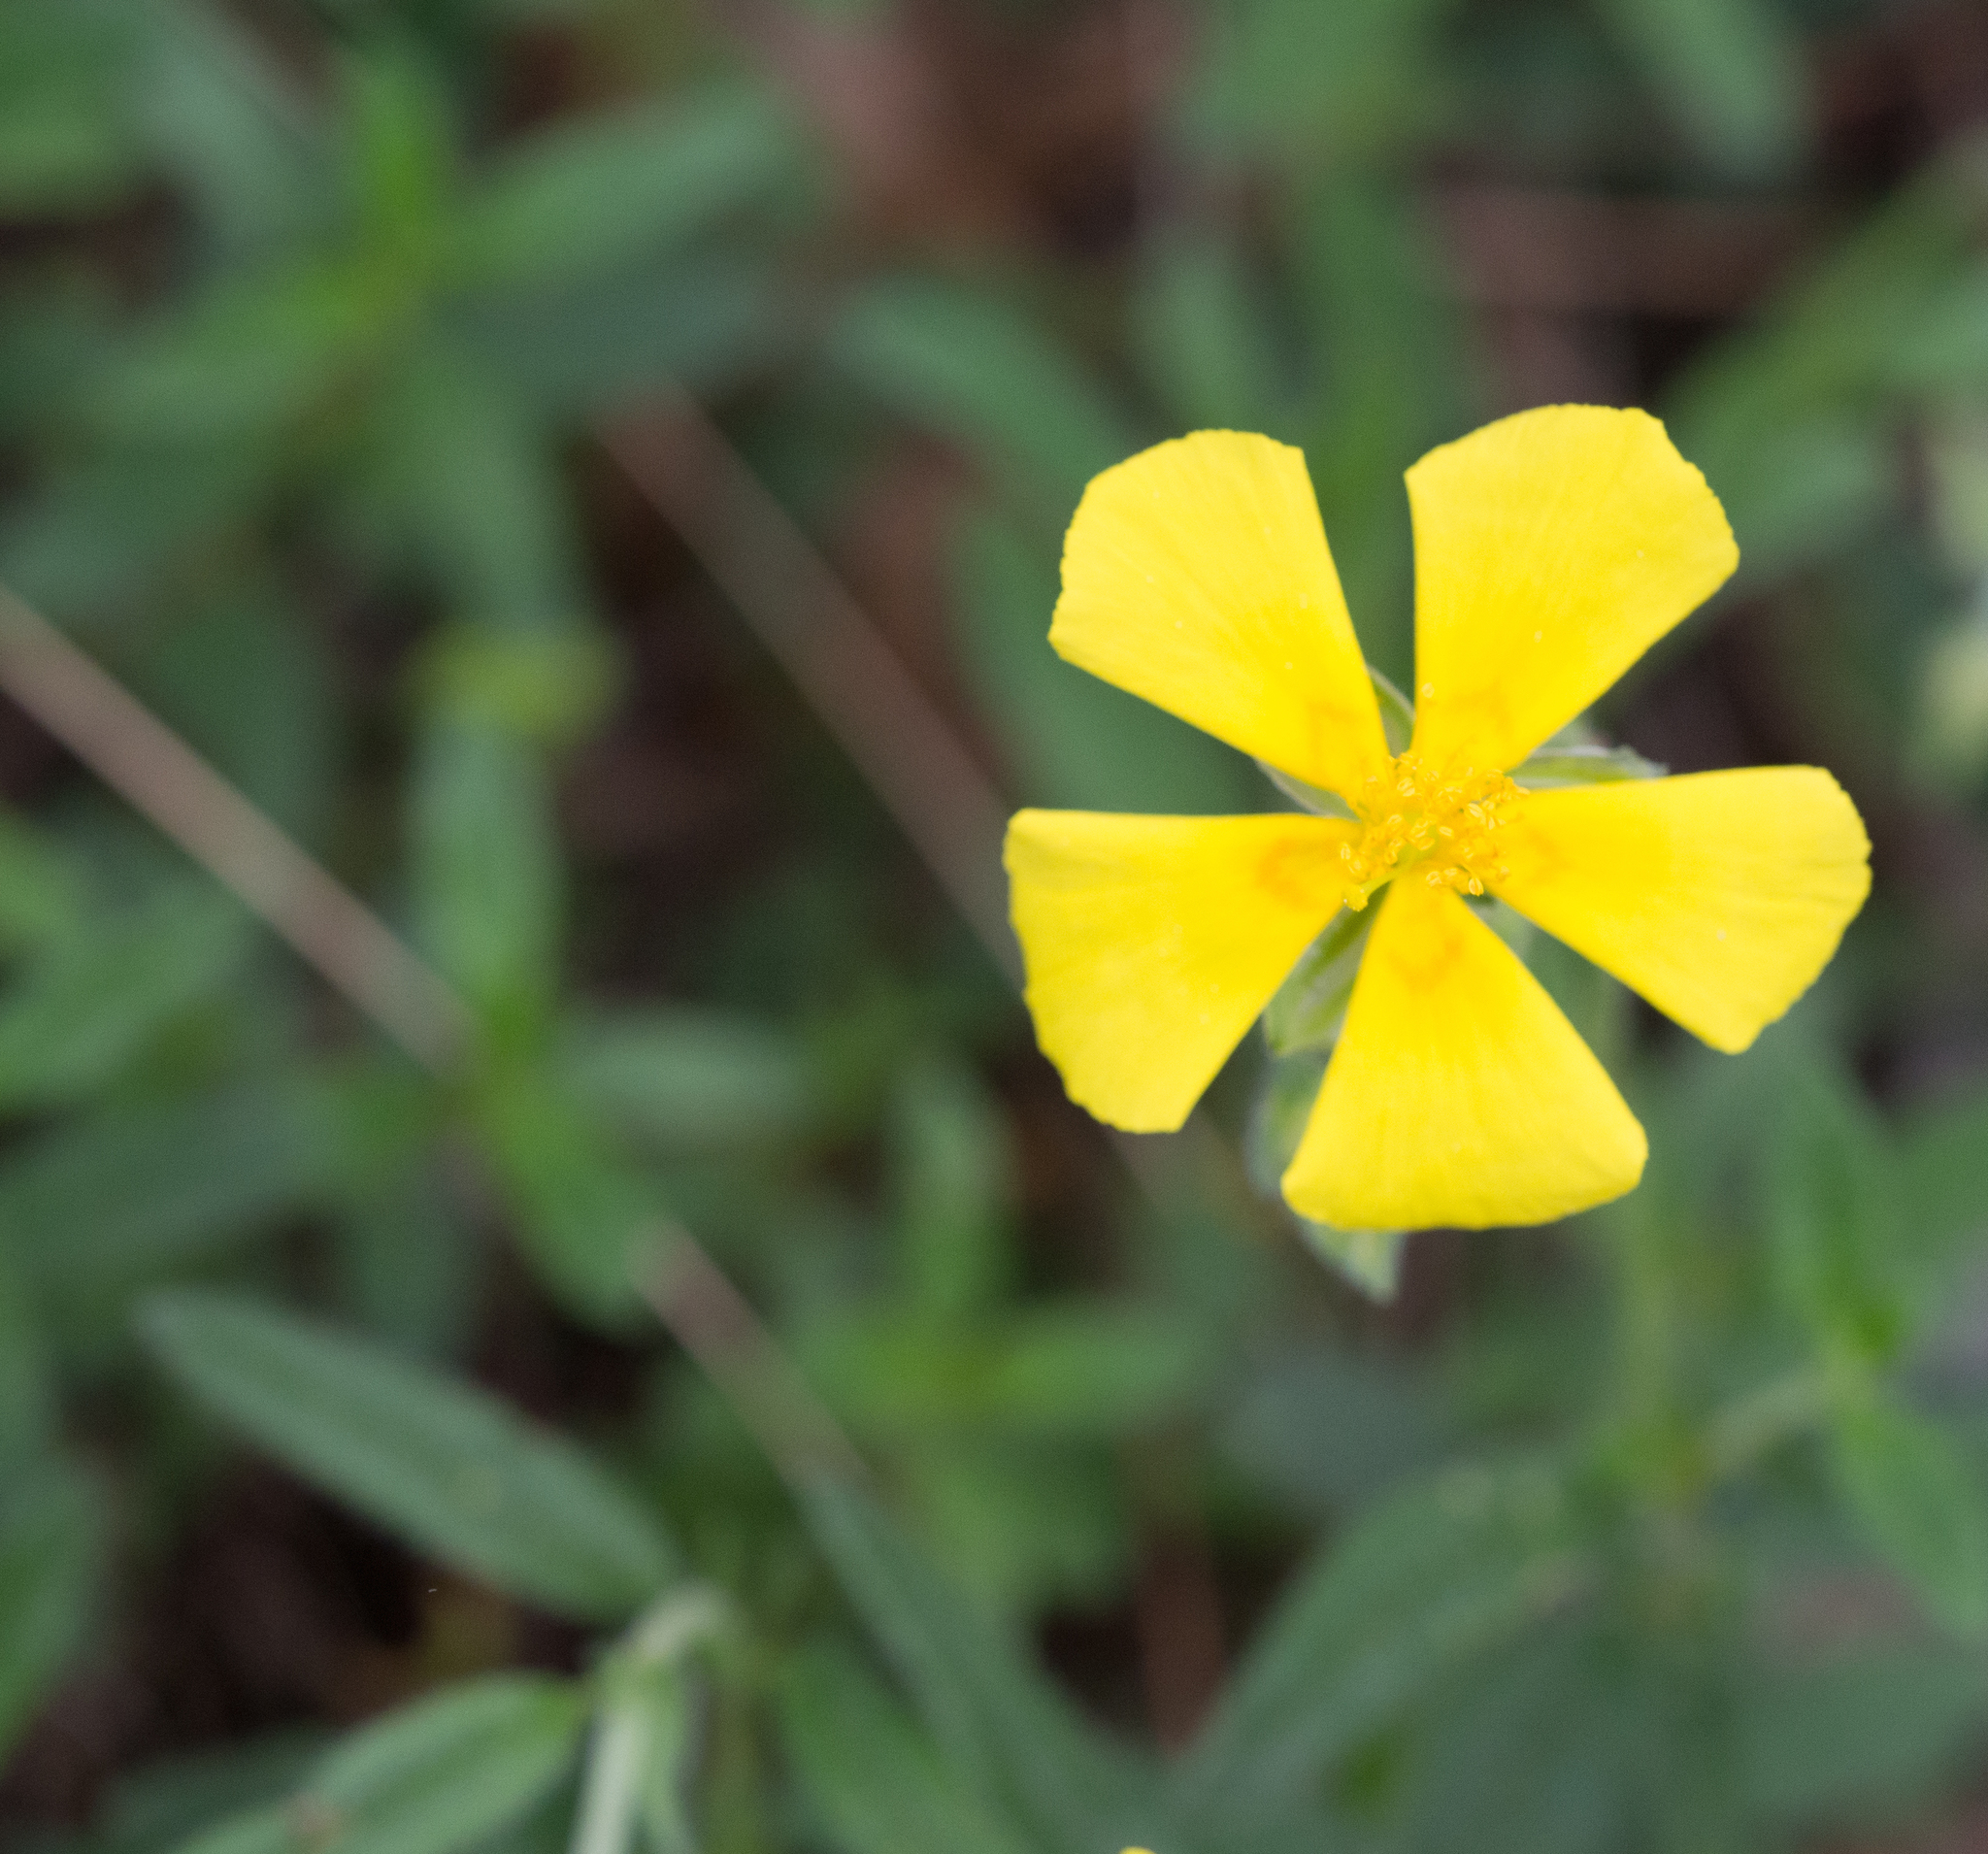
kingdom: Plantae
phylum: Tracheophyta
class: Magnoliopsida
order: Malvales
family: Cistaceae
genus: Helianthemum
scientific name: Helianthemum nummularium
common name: Common rock-rose
